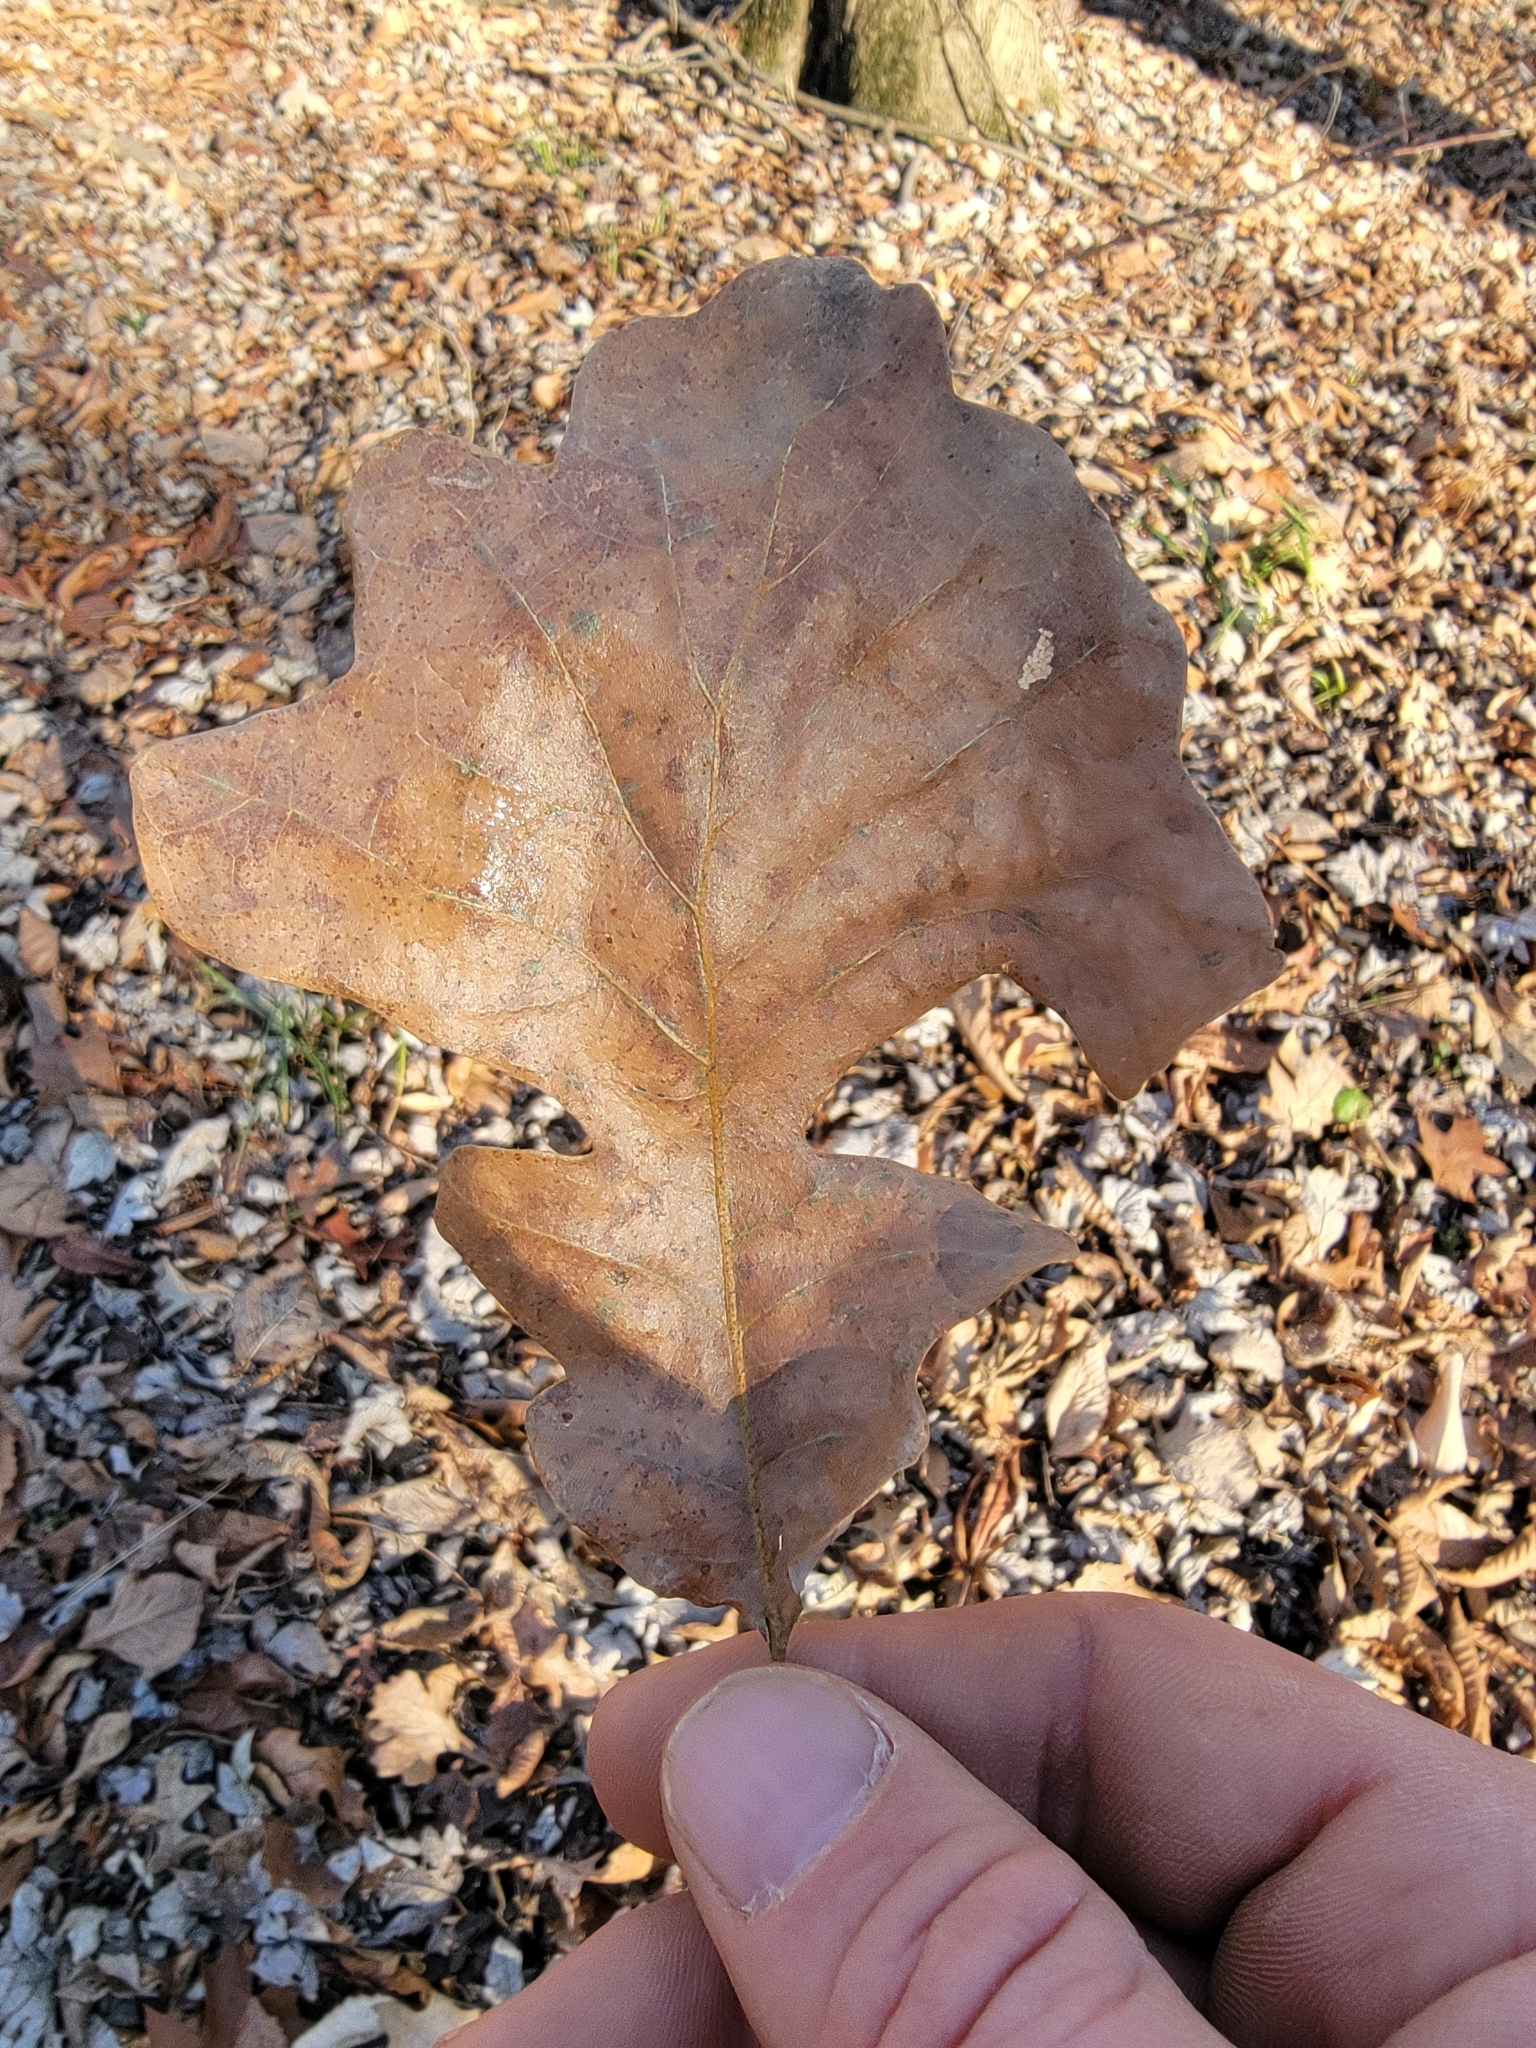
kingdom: Plantae
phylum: Tracheophyta
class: Magnoliopsida
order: Fagales
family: Fagaceae
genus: Quercus
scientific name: Quercus macrocarpa
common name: Bur oak
